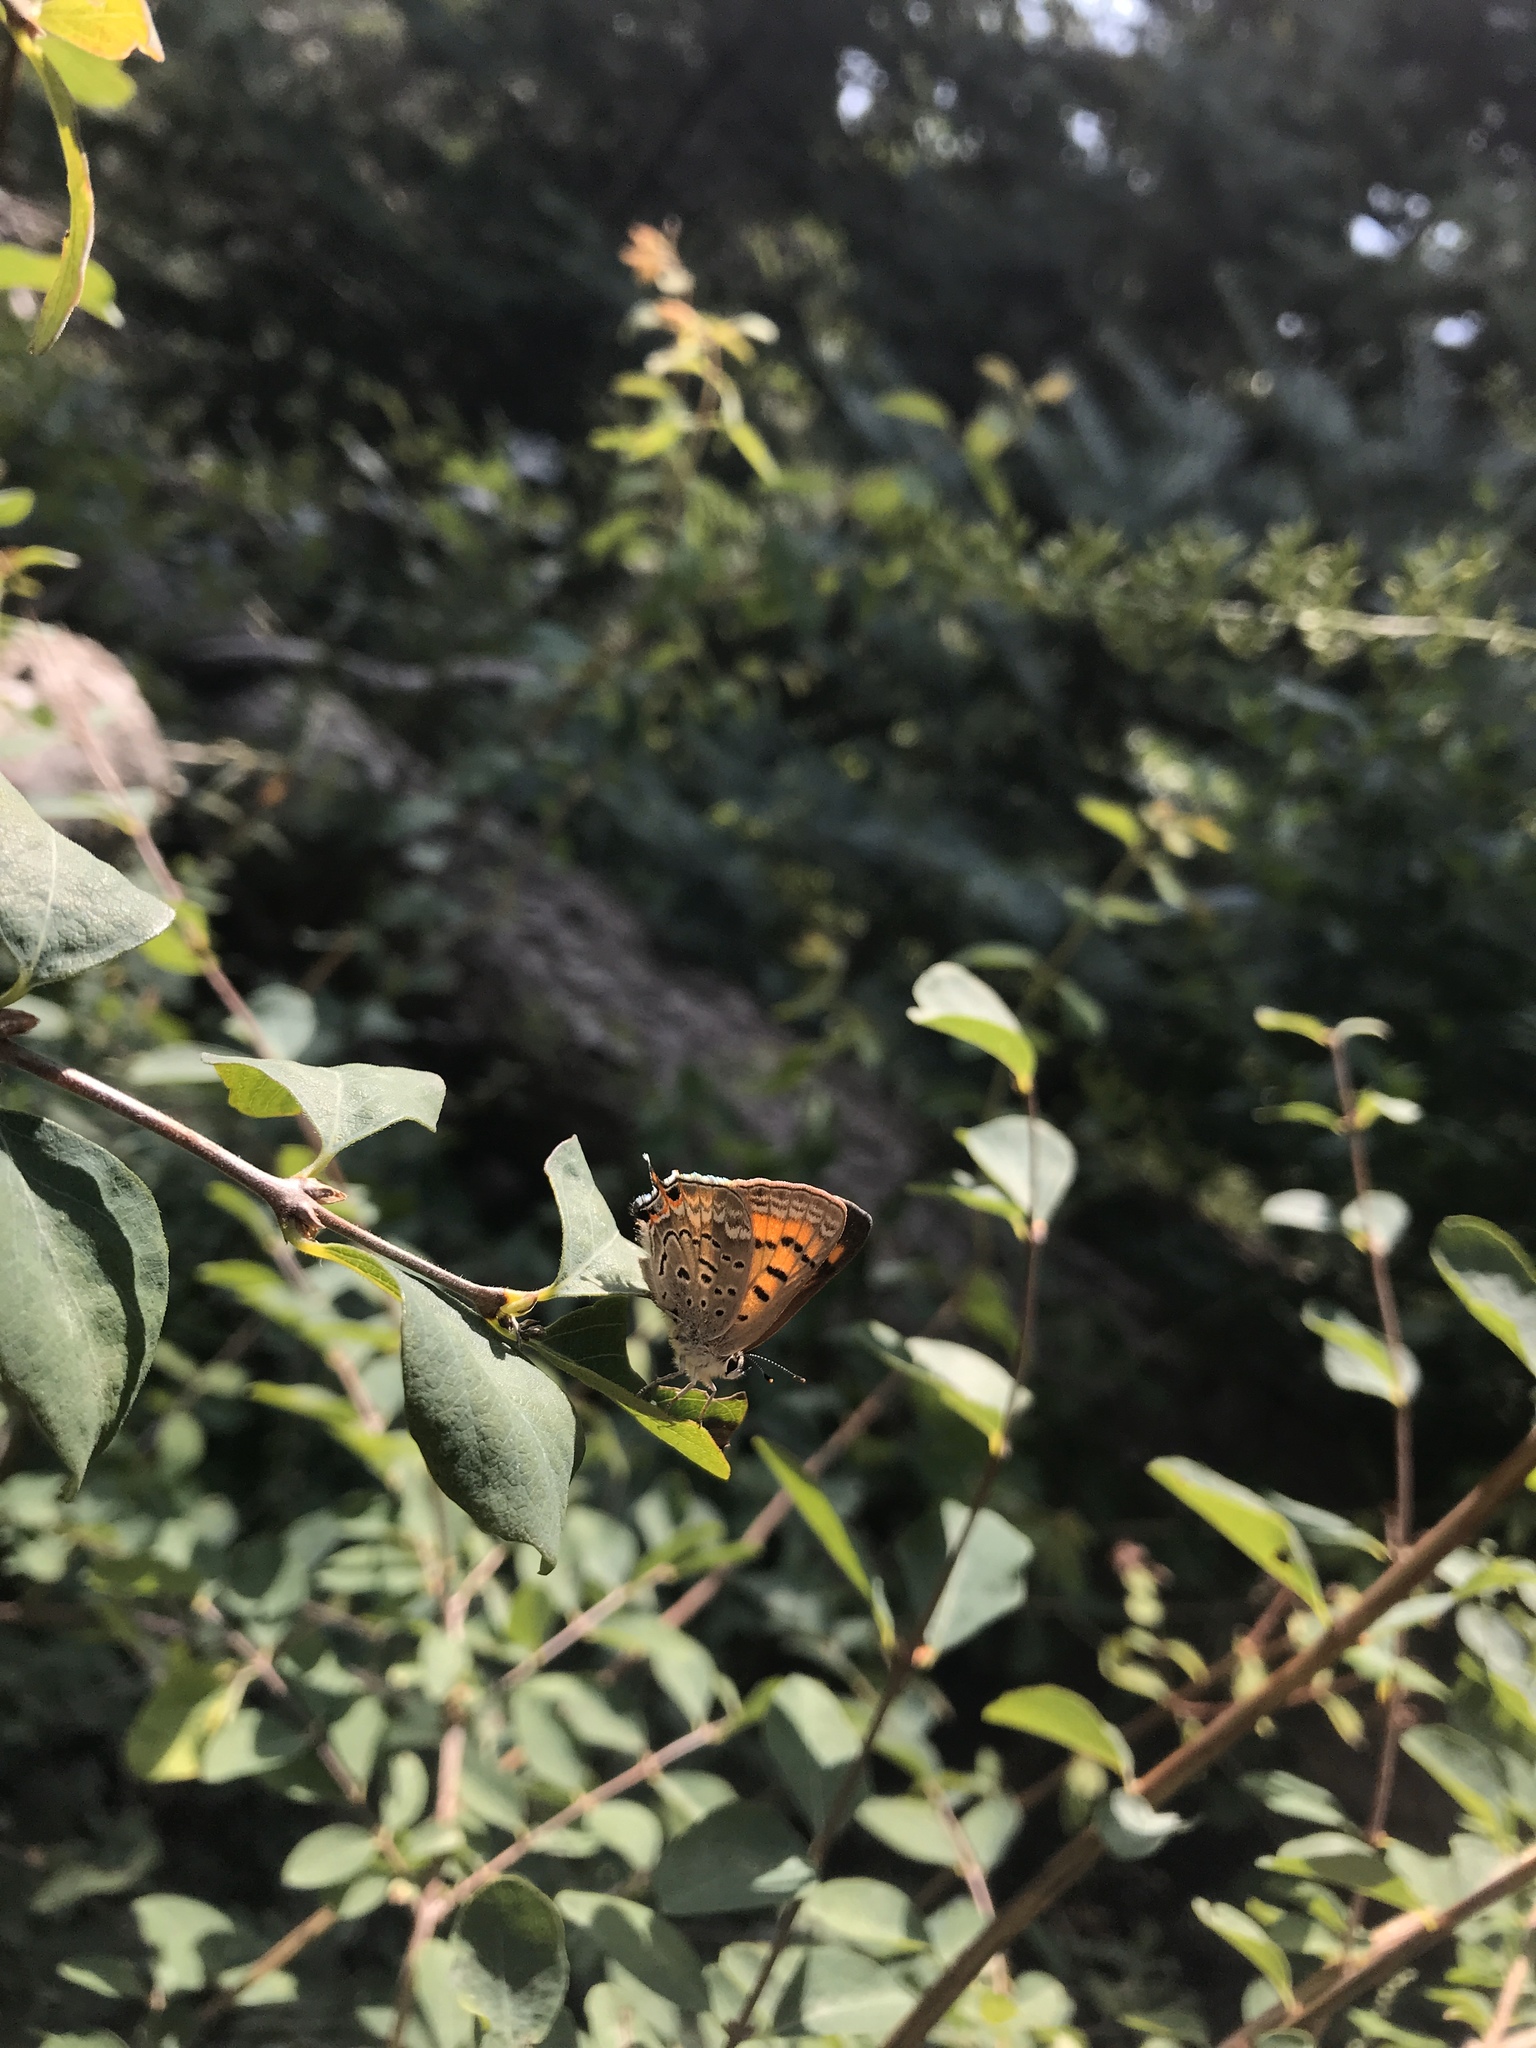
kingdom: Animalia
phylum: Arthropoda
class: Insecta
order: Lepidoptera
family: Lycaenidae
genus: Tharsalea
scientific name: Tharsalea arota
